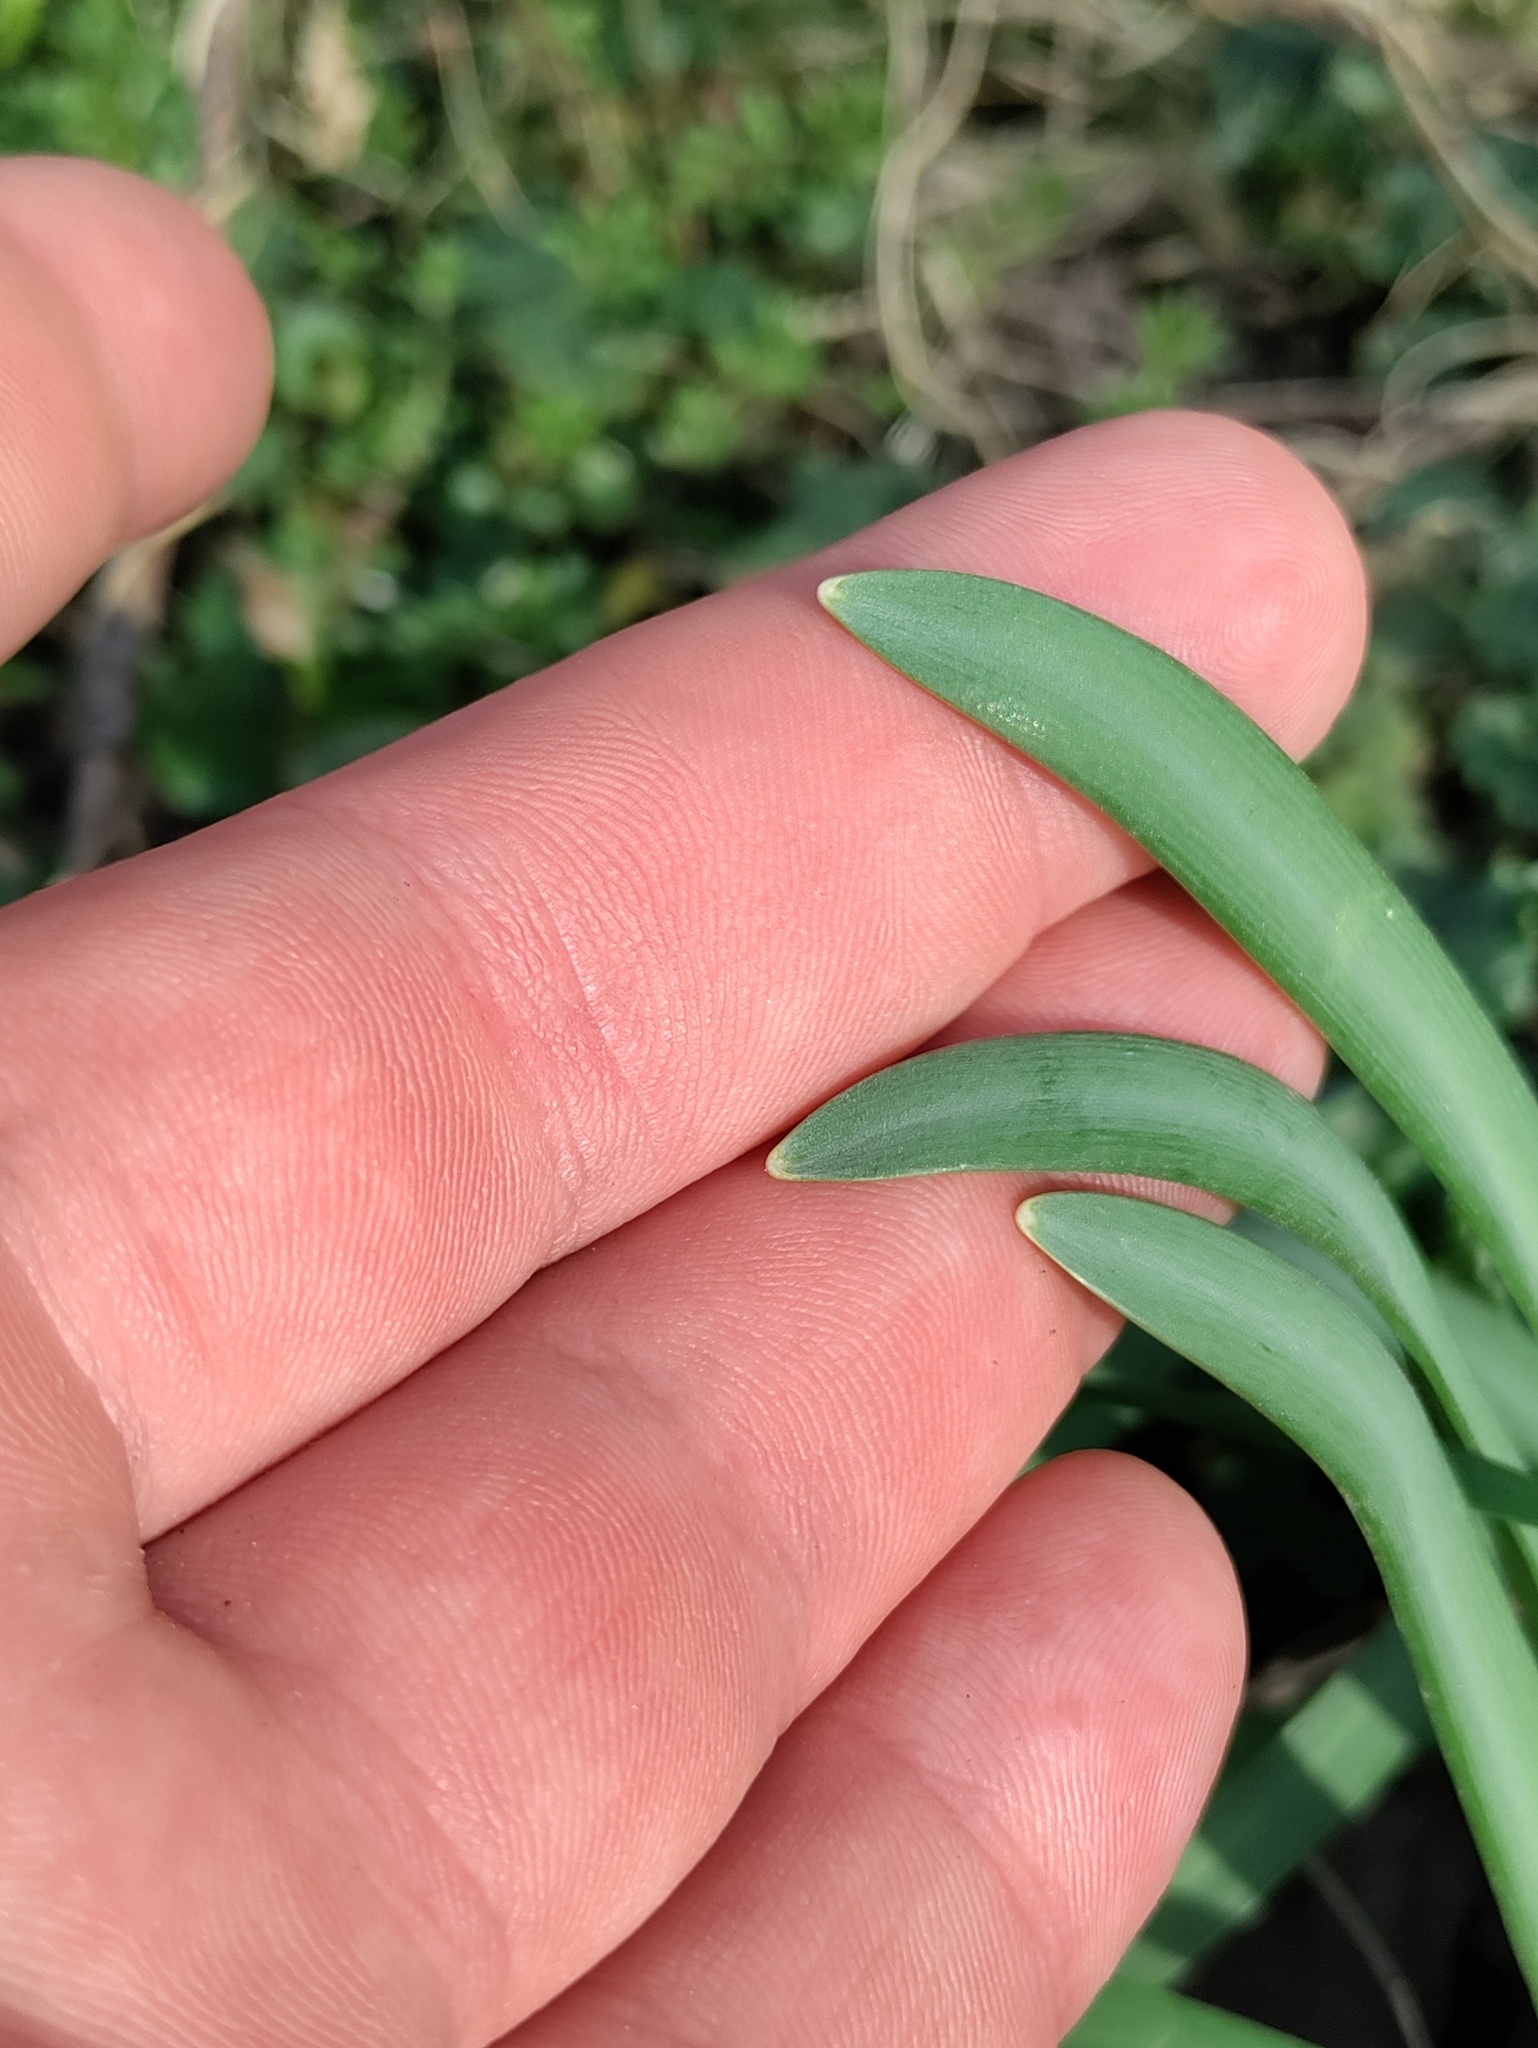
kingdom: Plantae
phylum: Tracheophyta
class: Liliopsida
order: Asparagales
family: Amaryllidaceae
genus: Galanthus
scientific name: Galanthus nivalis
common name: Snowdrop
